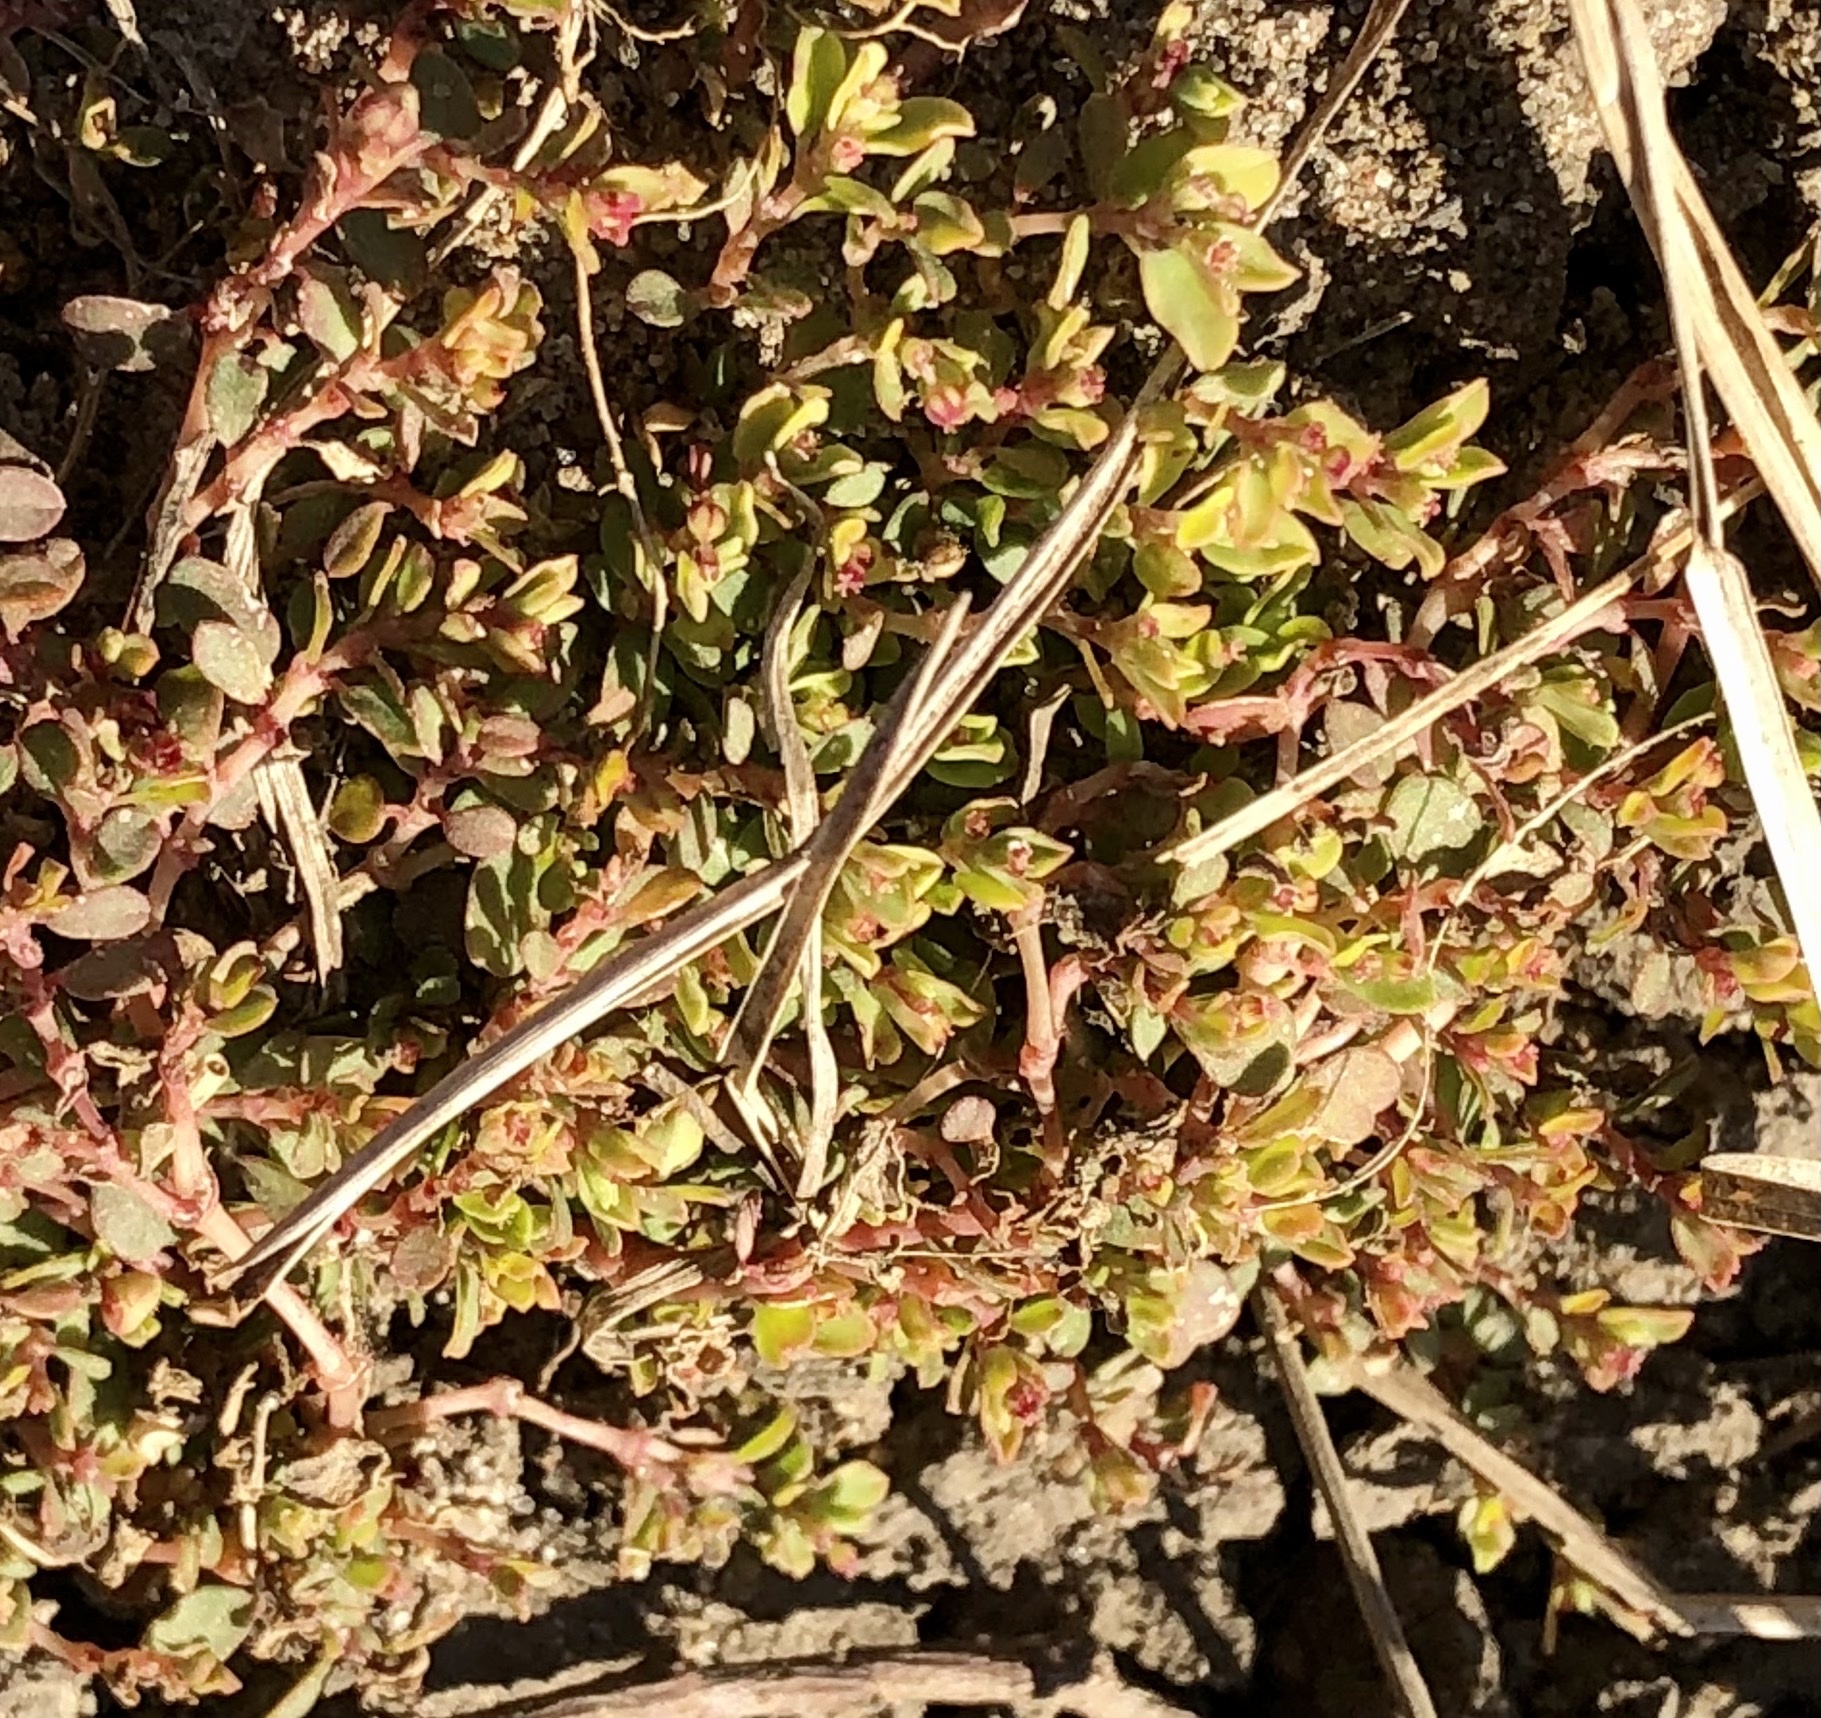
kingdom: Plantae
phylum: Tracheophyta
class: Magnoliopsida
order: Malpighiales
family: Euphorbiaceae
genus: Euphorbia
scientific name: Euphorbia serpens
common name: Matted sandmat
